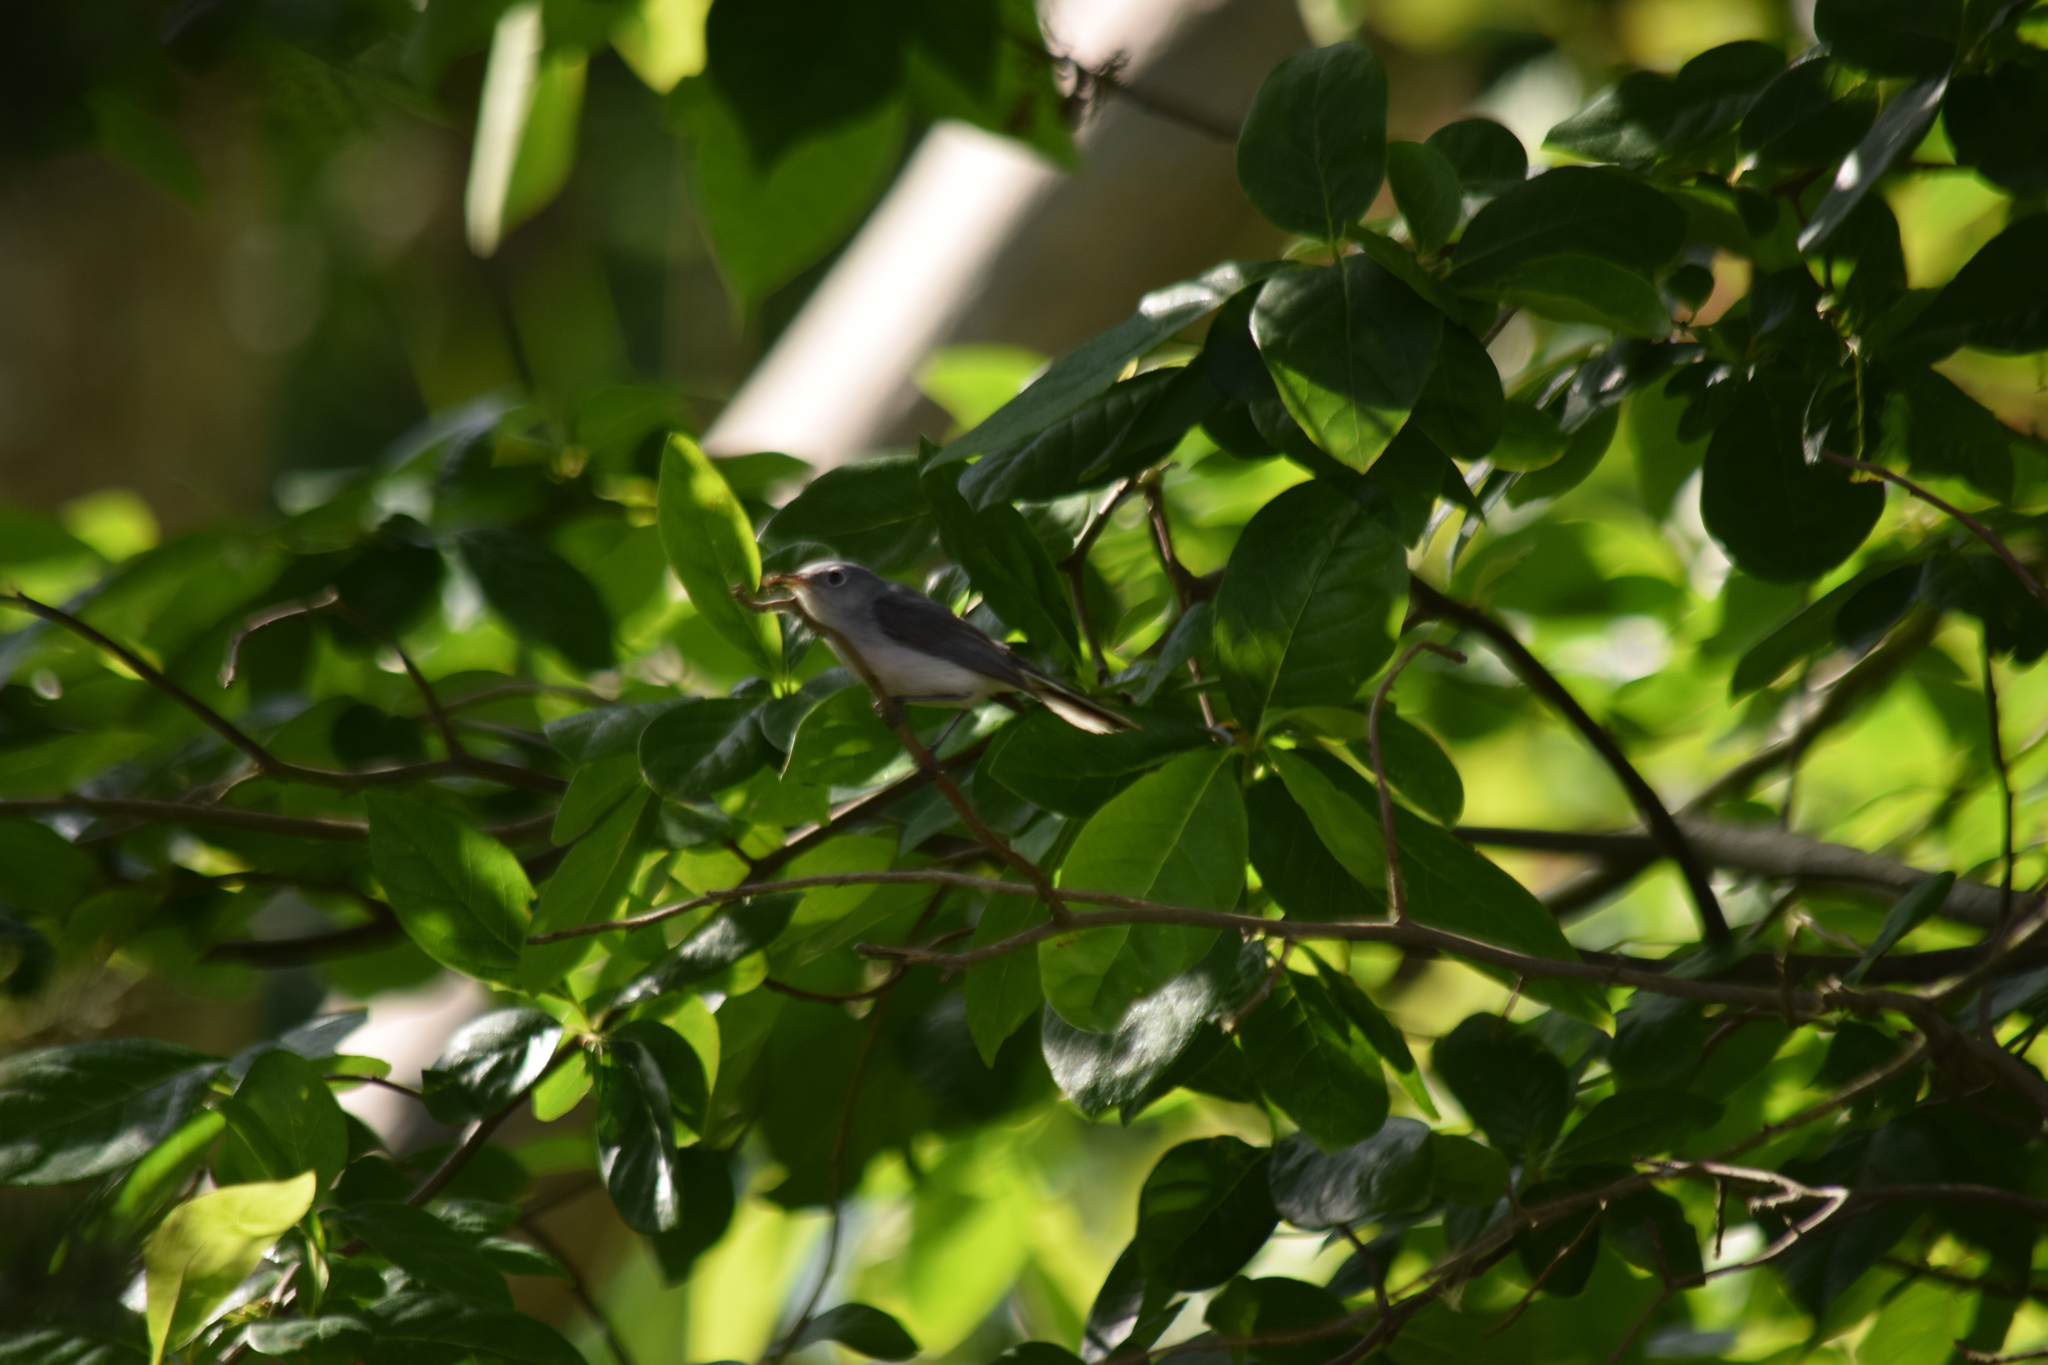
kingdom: Animalia
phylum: Chordata
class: Aves
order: Passeriformes
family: Polioptilidae
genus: Polioptila
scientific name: Polioptila caerulea
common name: Blue-gray gnatcatcher
